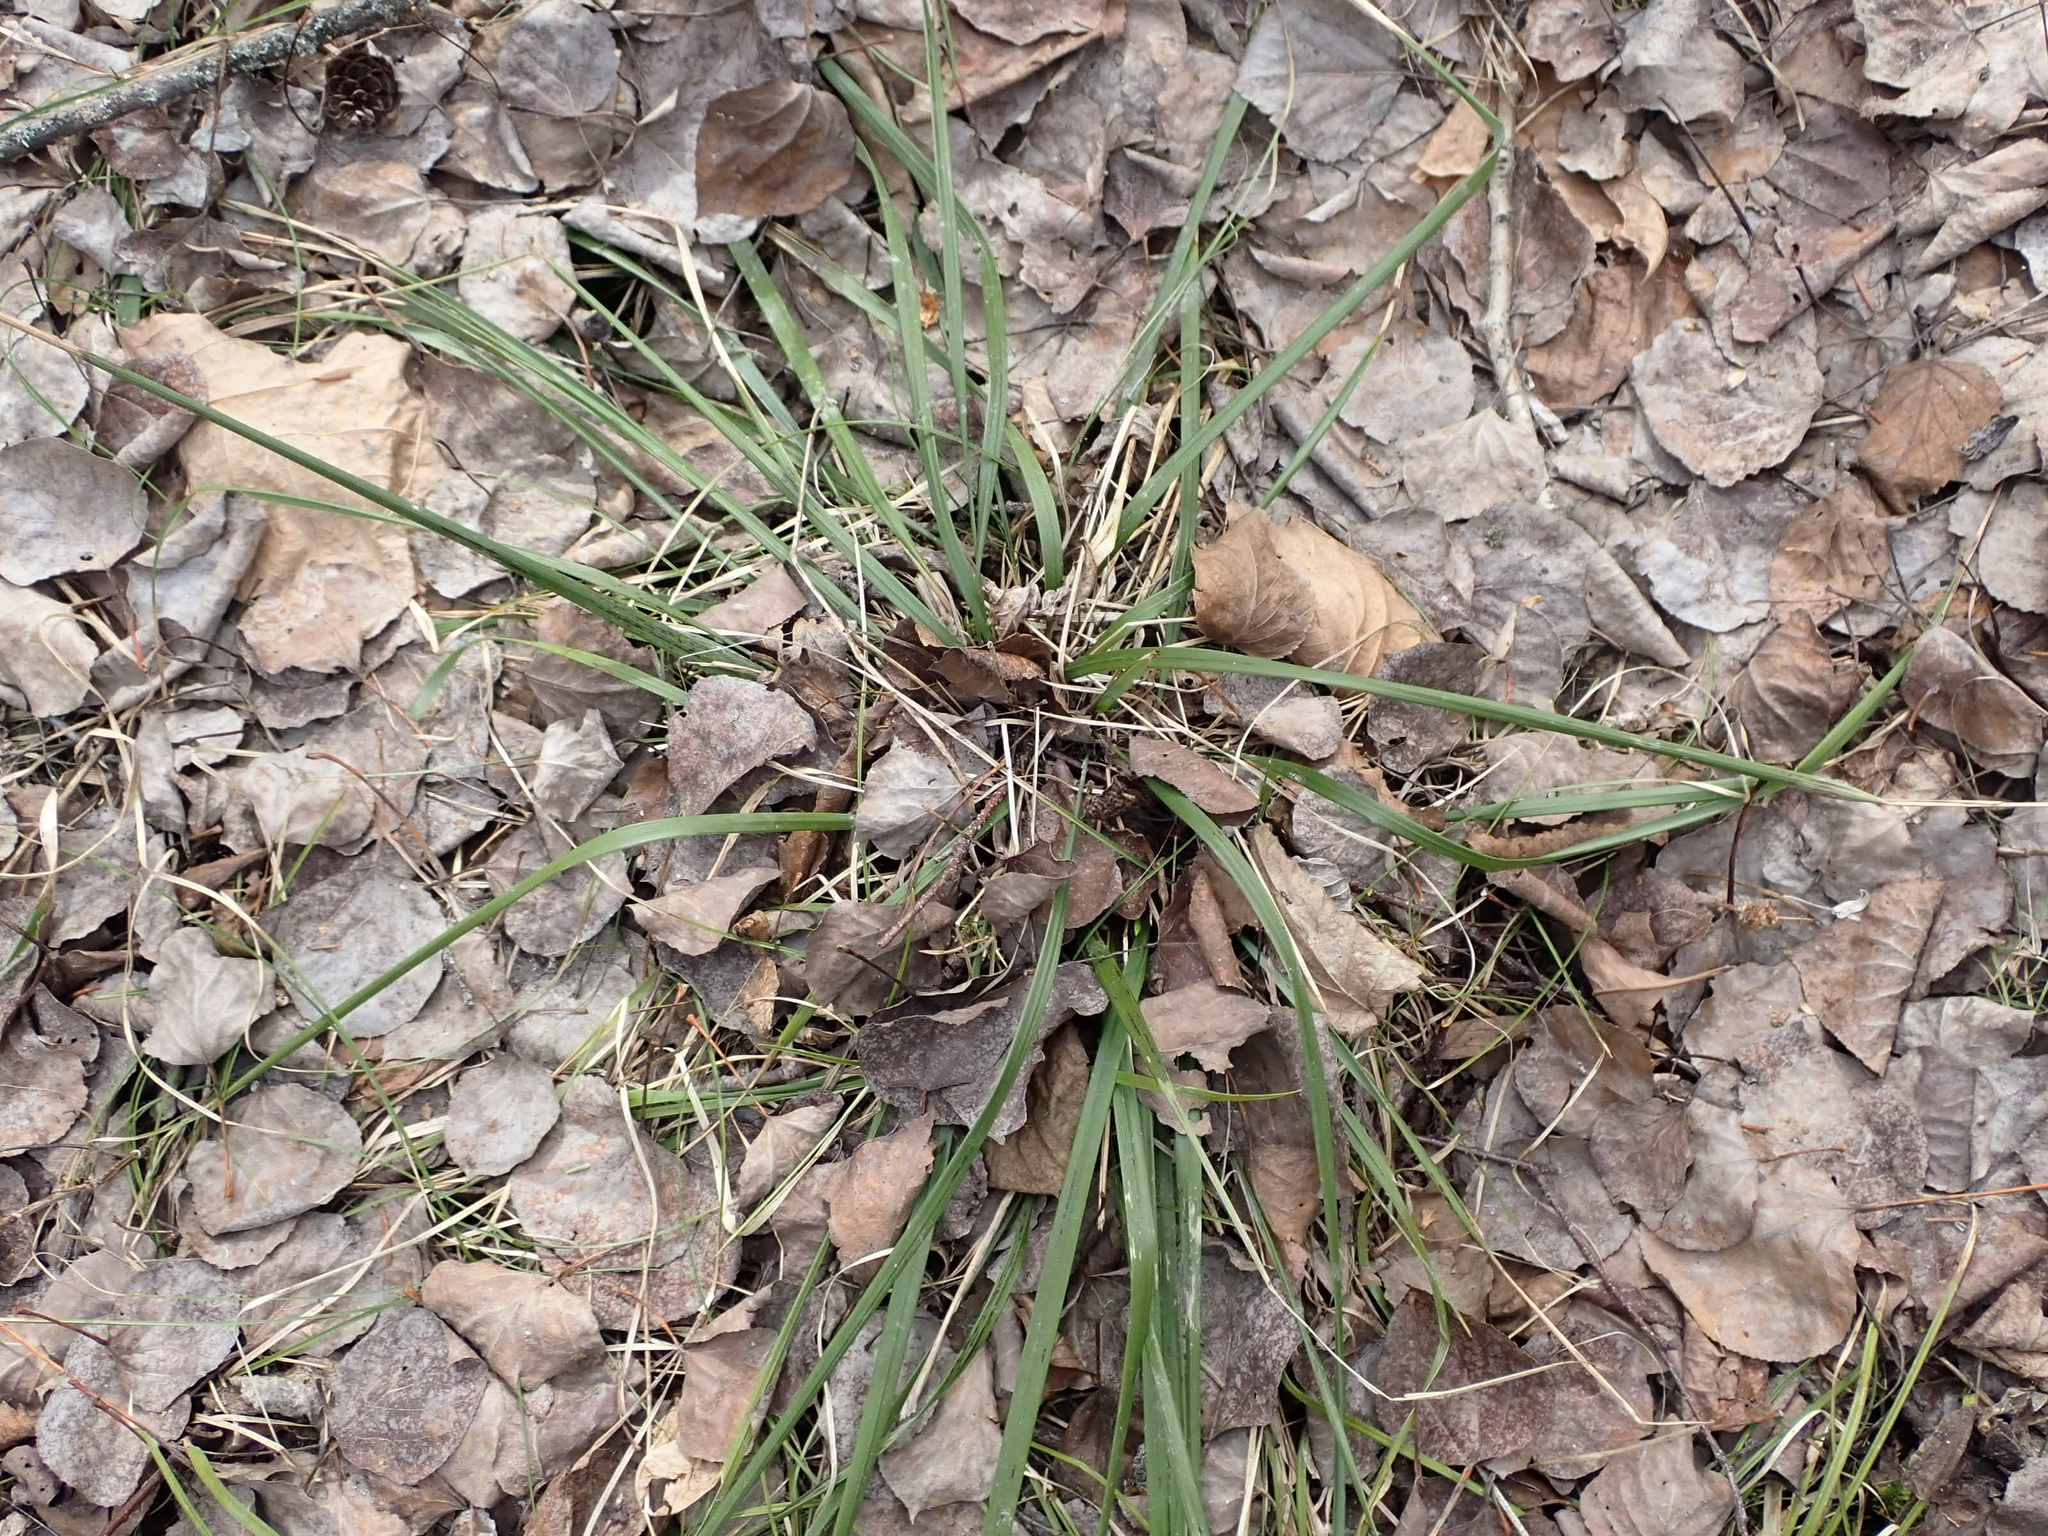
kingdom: Plantae
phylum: Tracheophyta
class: Liliopsida
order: Poales
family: Poaceae
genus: Oryzopsis
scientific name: Oryzopsis asperifolia
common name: Rough-leaved mountain rice
